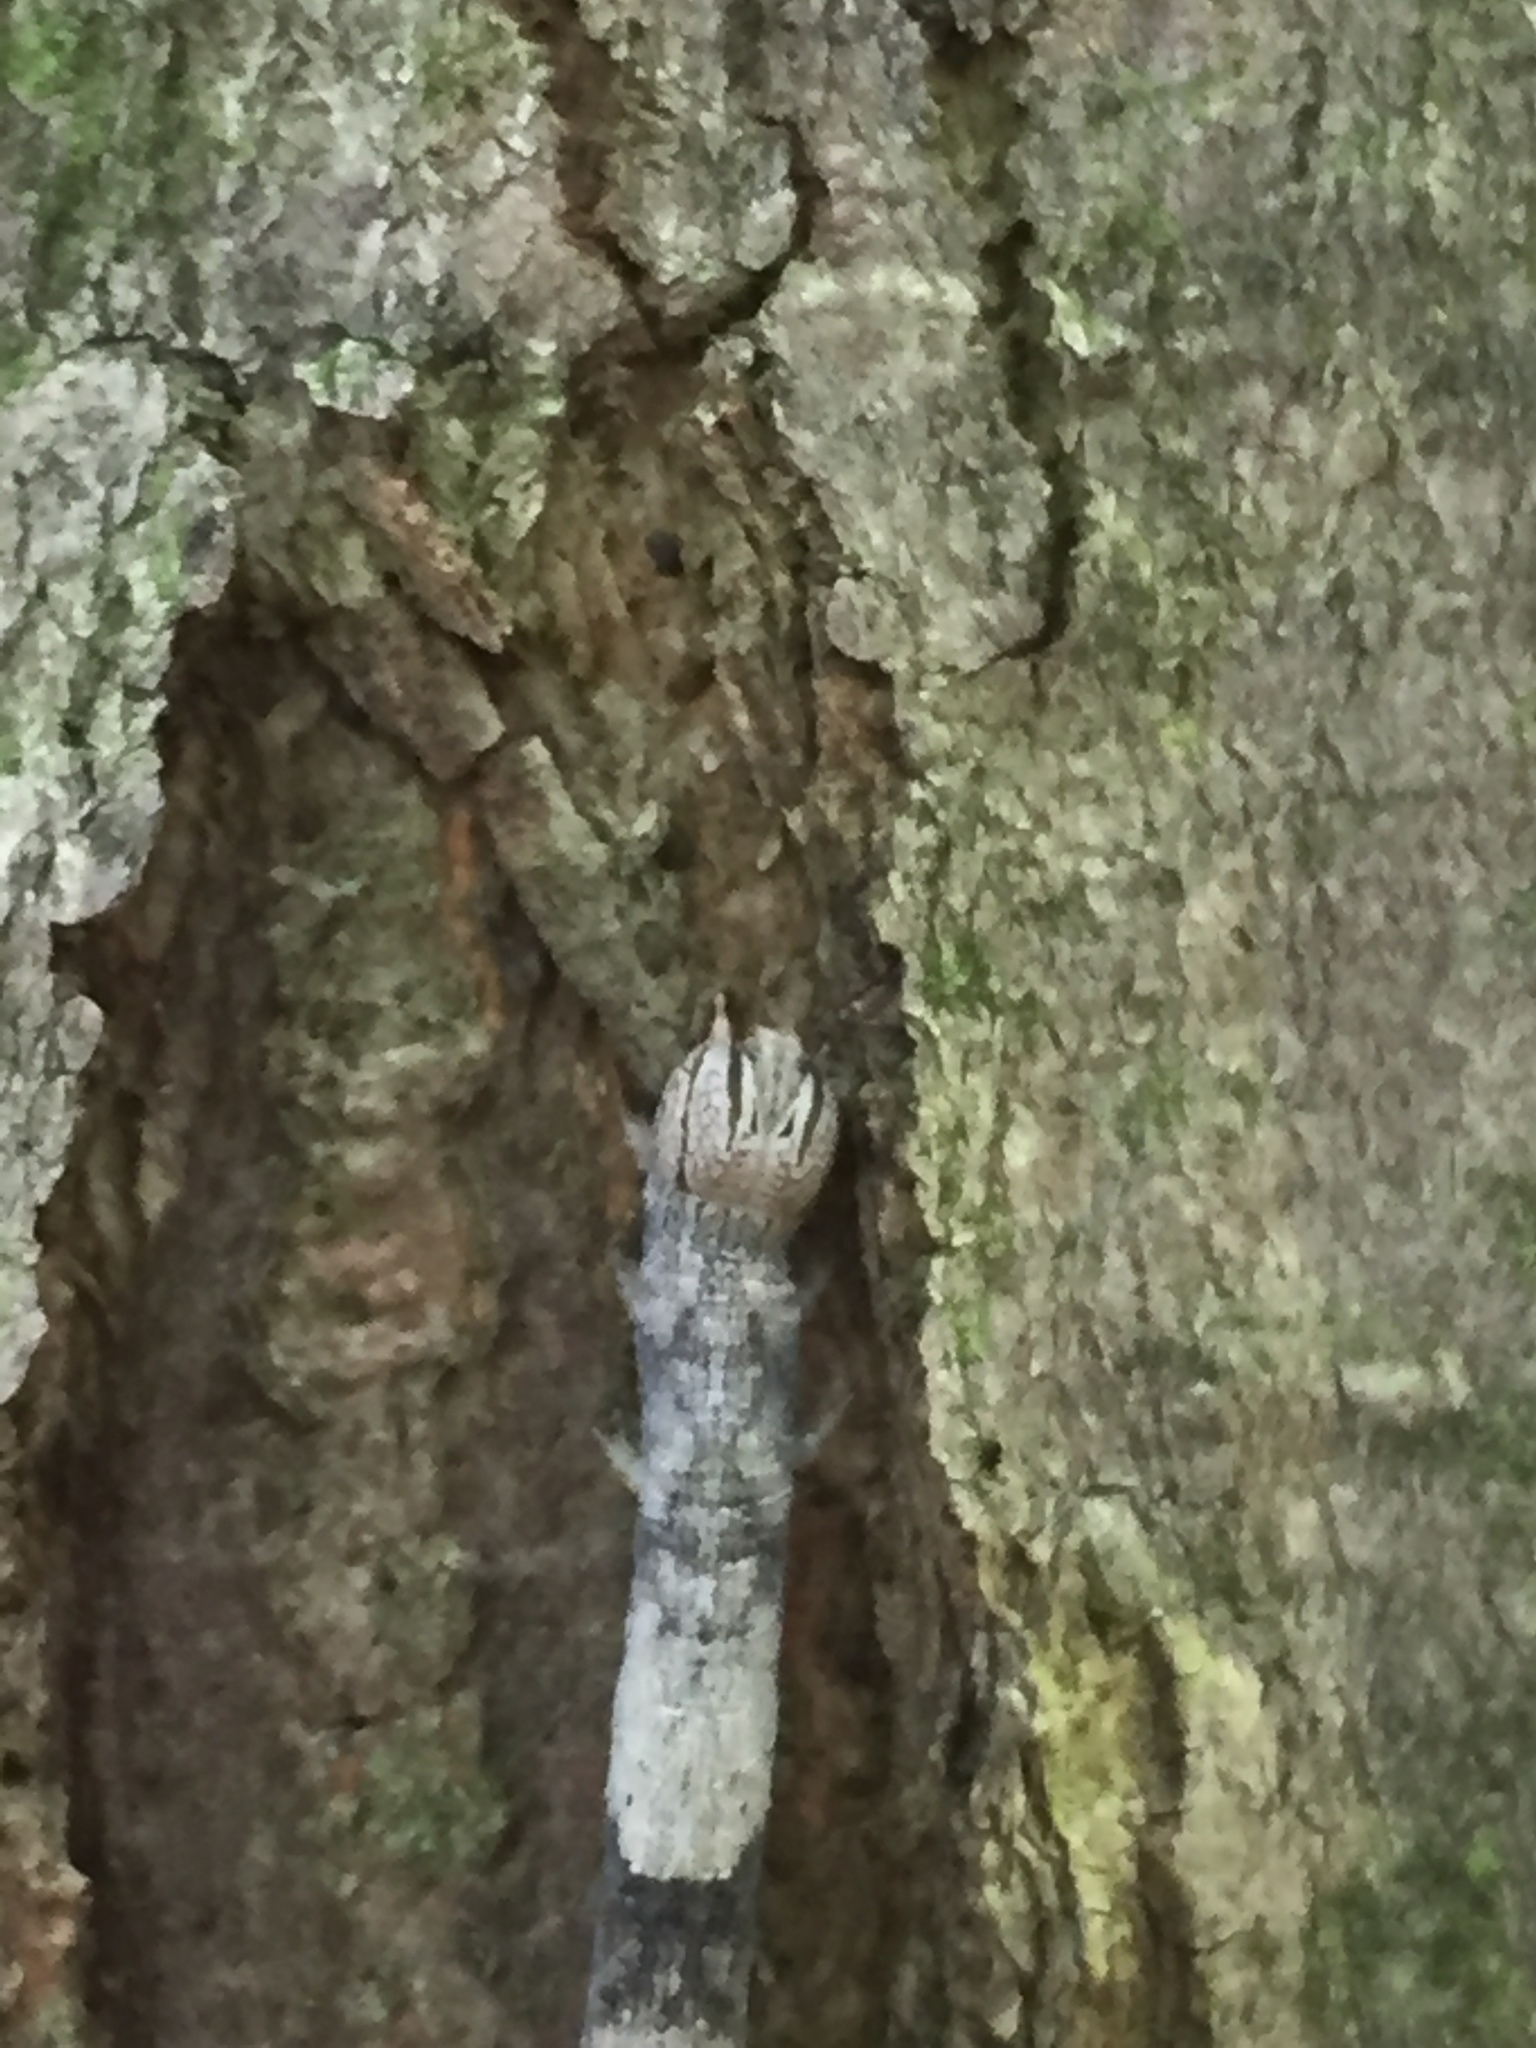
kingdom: Animalia
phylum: Arthropoda
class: Insecta
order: Lepidoptera
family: Erebidae
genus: Parallelia
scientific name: Parallelia bistriaris
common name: Maple looper moth
